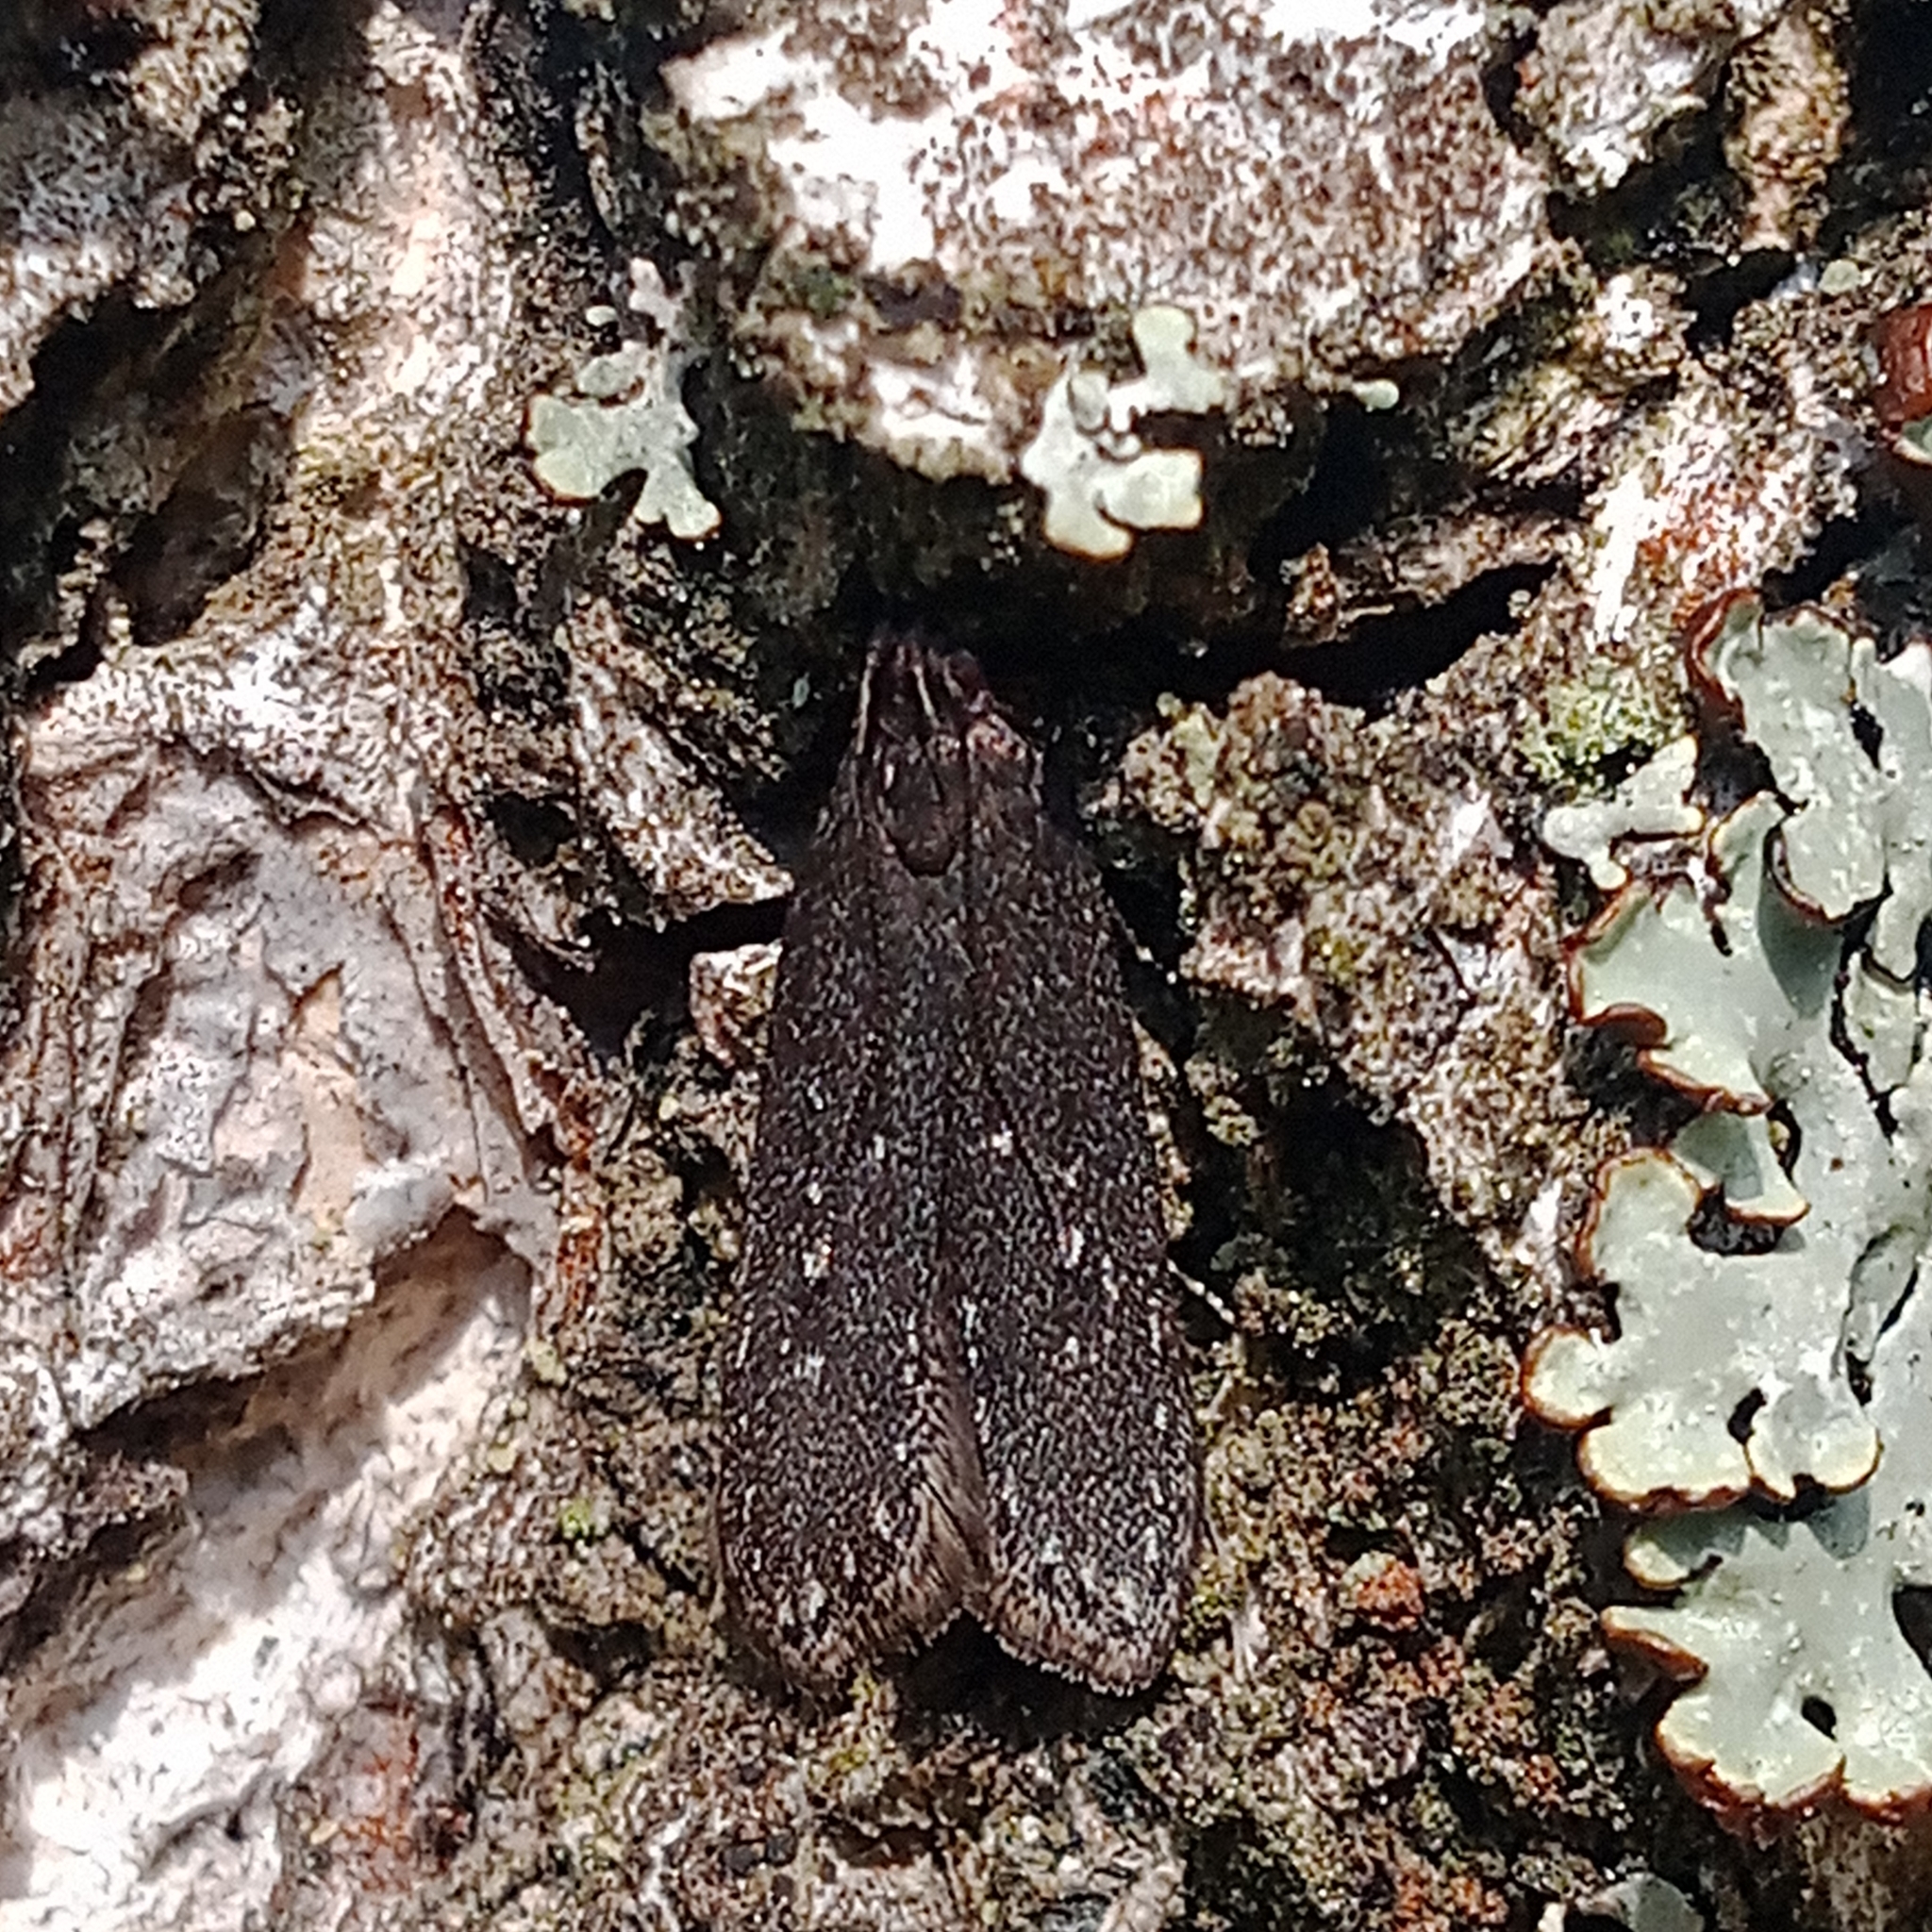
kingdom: Animalia
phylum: Arthropoda
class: Insecta
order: Lepidoptera
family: Gelechiidae
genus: Neofaculta
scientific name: Neofaculta infernella
